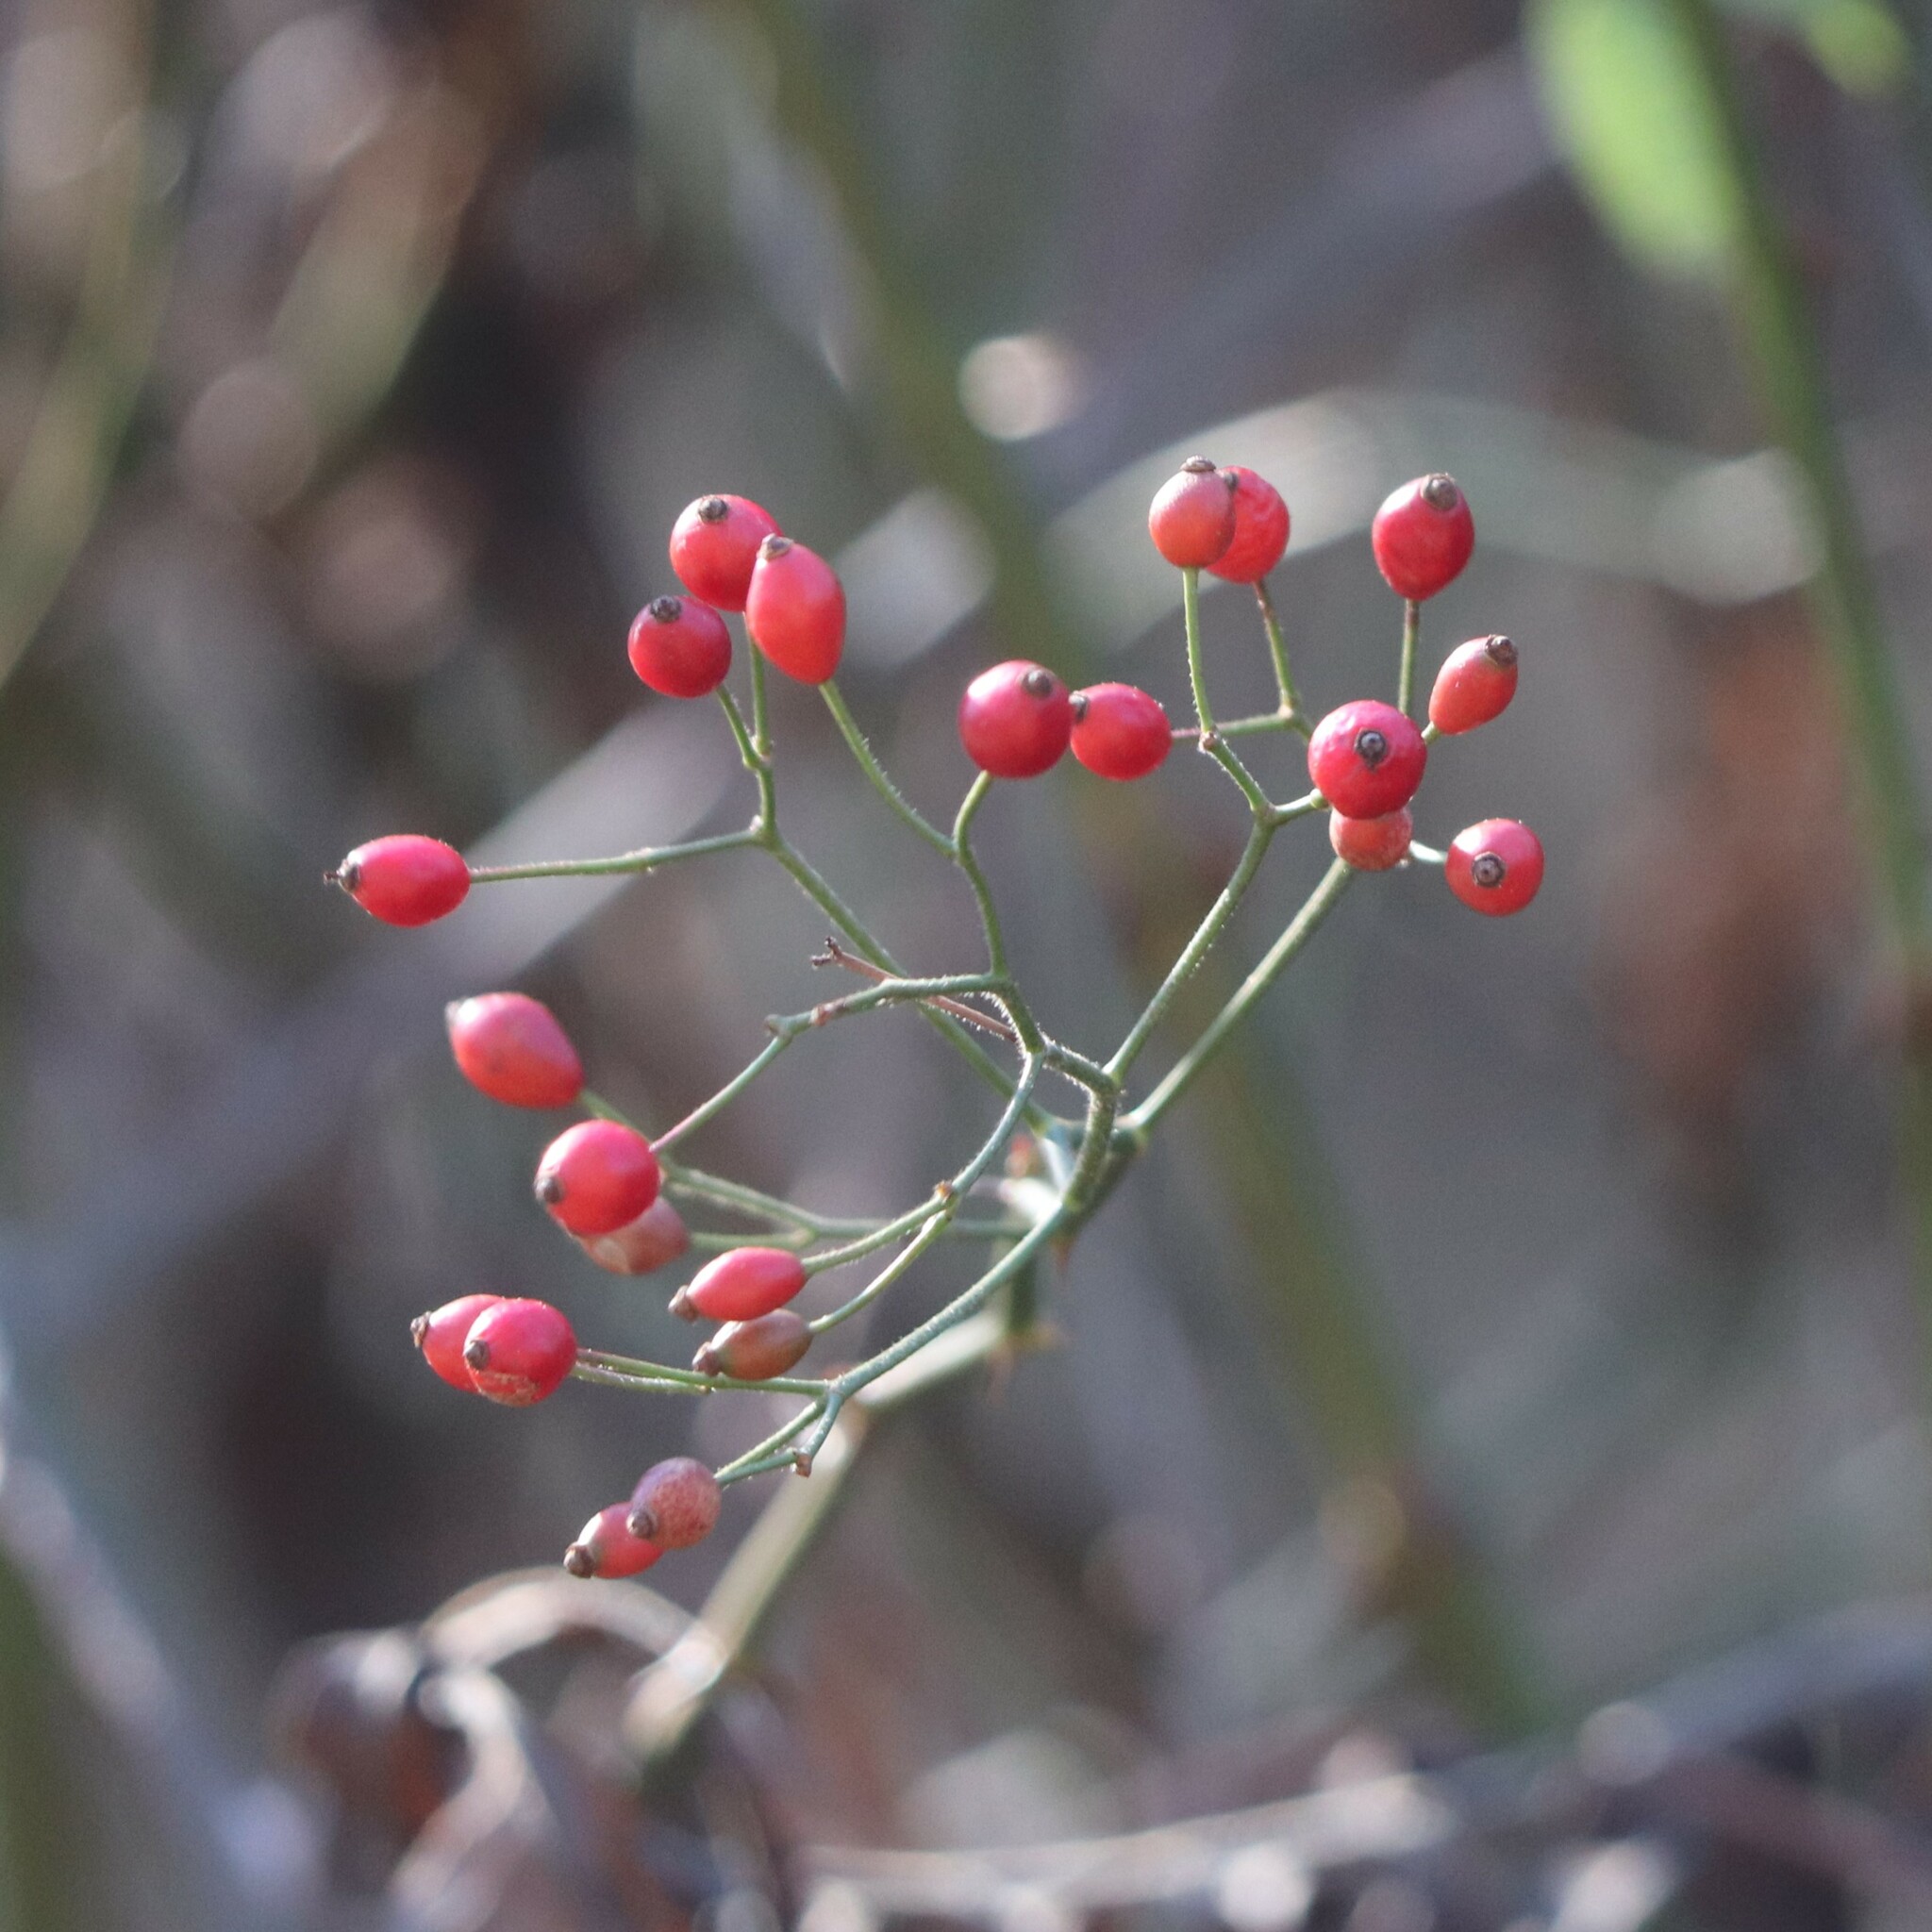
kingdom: Plantae
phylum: Tracheophyta
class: Magnoliopsida
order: Rosales
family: Rosaceae
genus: Rosa
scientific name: Rosa multiflora
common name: Multiflora rose
